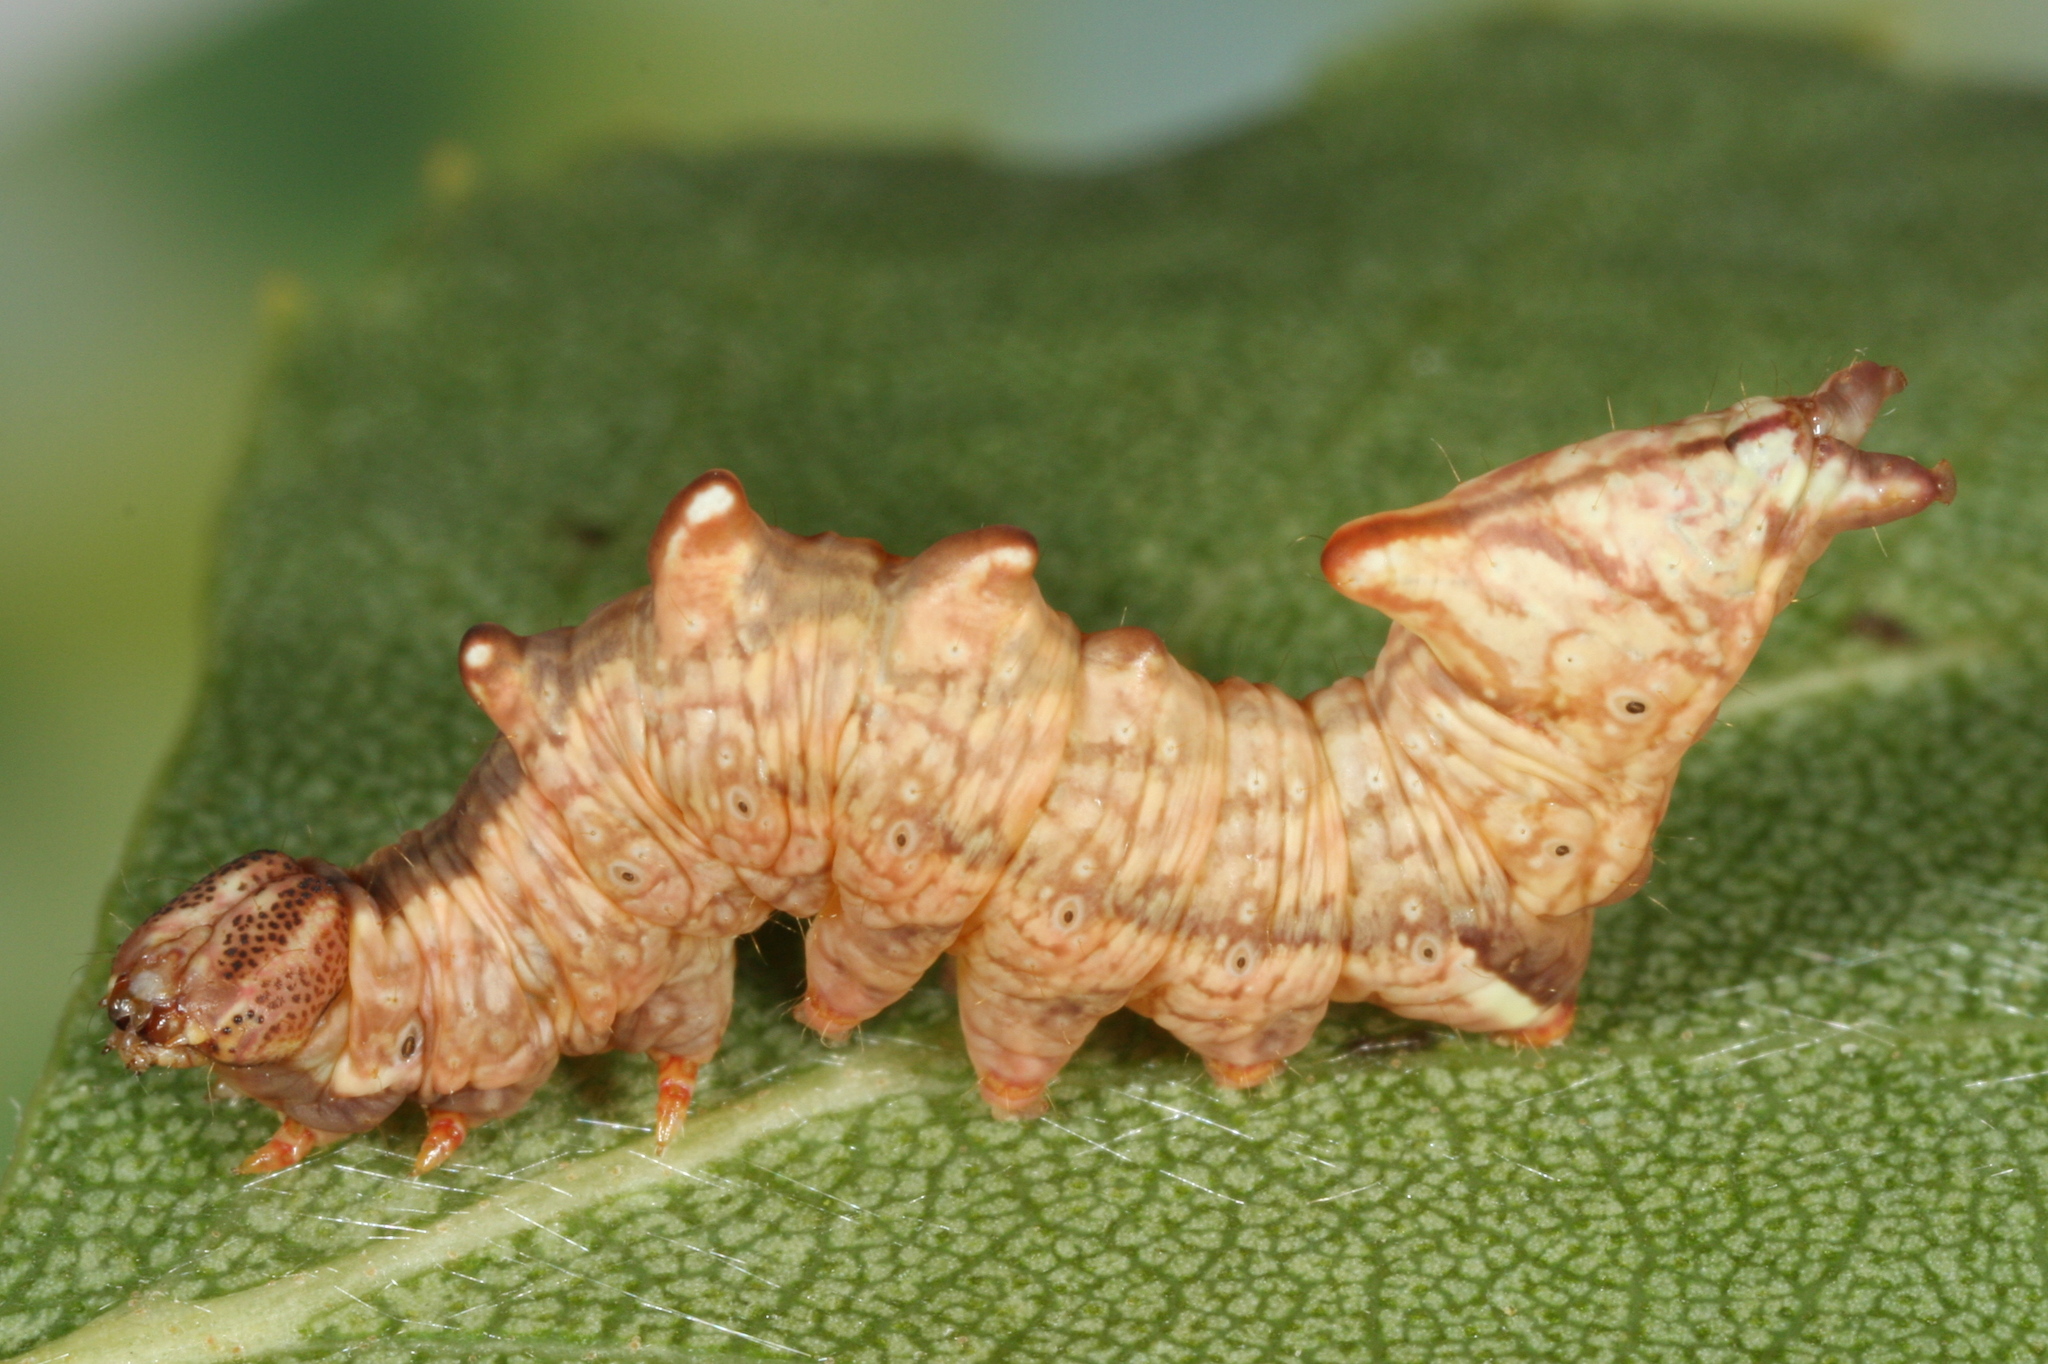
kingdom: Animalia
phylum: Arthropoda
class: Insecta
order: Lepidoptera
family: Notodontidae
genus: Notodonta
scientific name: Notodonta dromedarius
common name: Iron prominent
